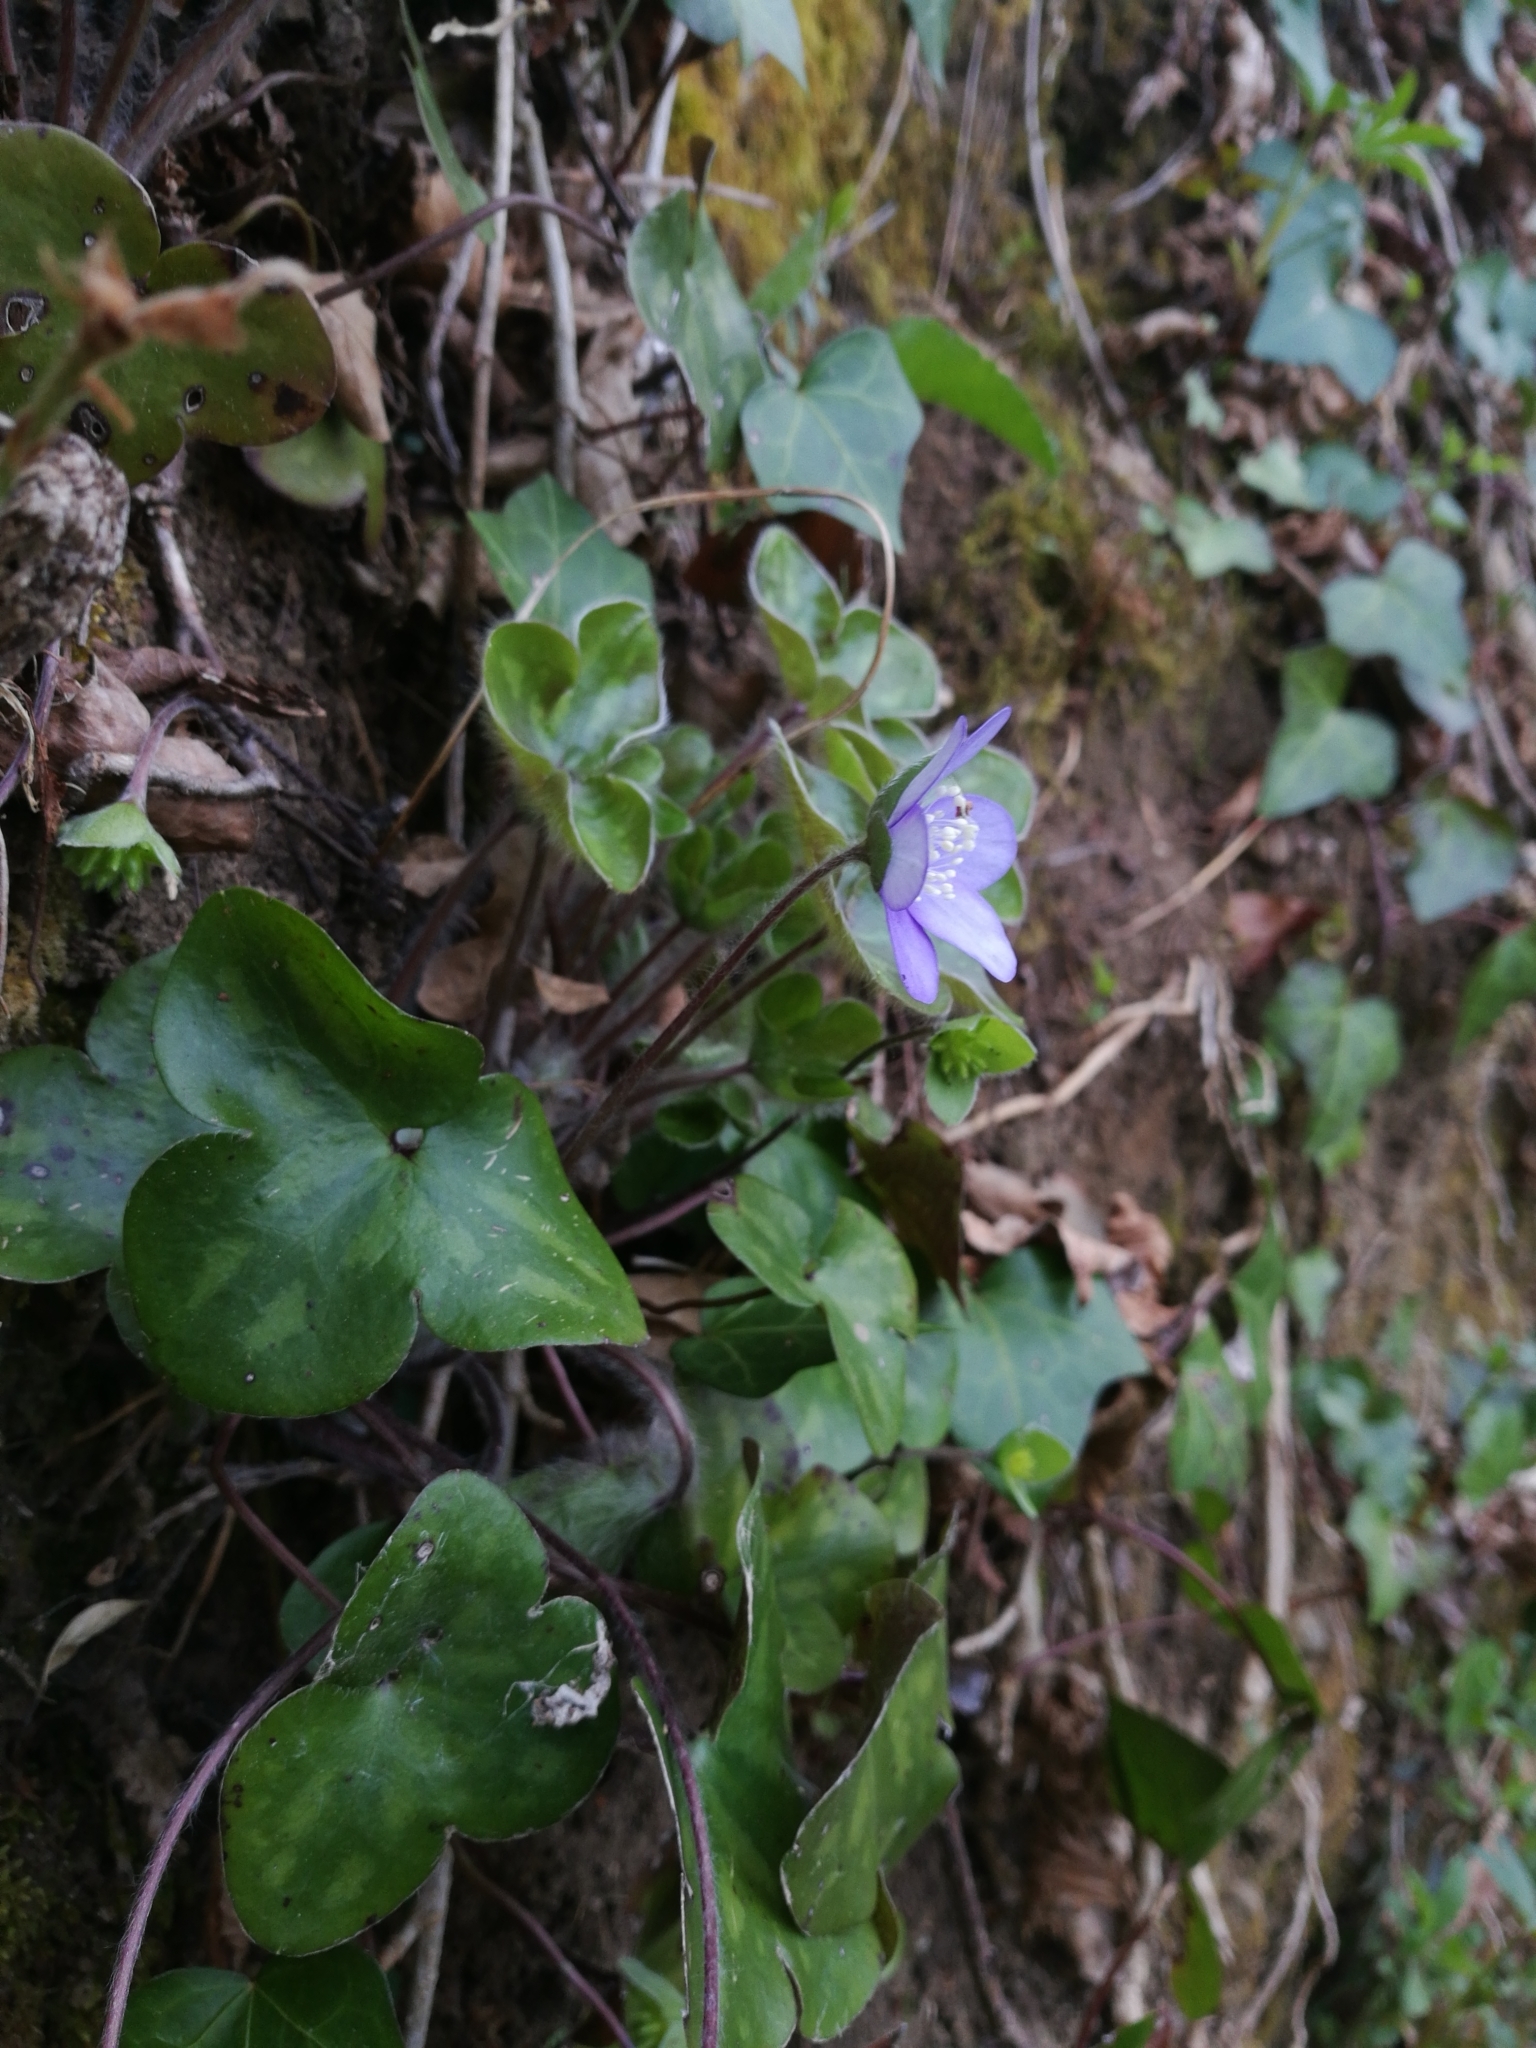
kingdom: Plantae
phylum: Tracheophyta
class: Magnoliopsida
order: Ranunculales
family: Ranunculaceae
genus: Hepatica
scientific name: Hepatica nobilis
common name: Liverleaf
